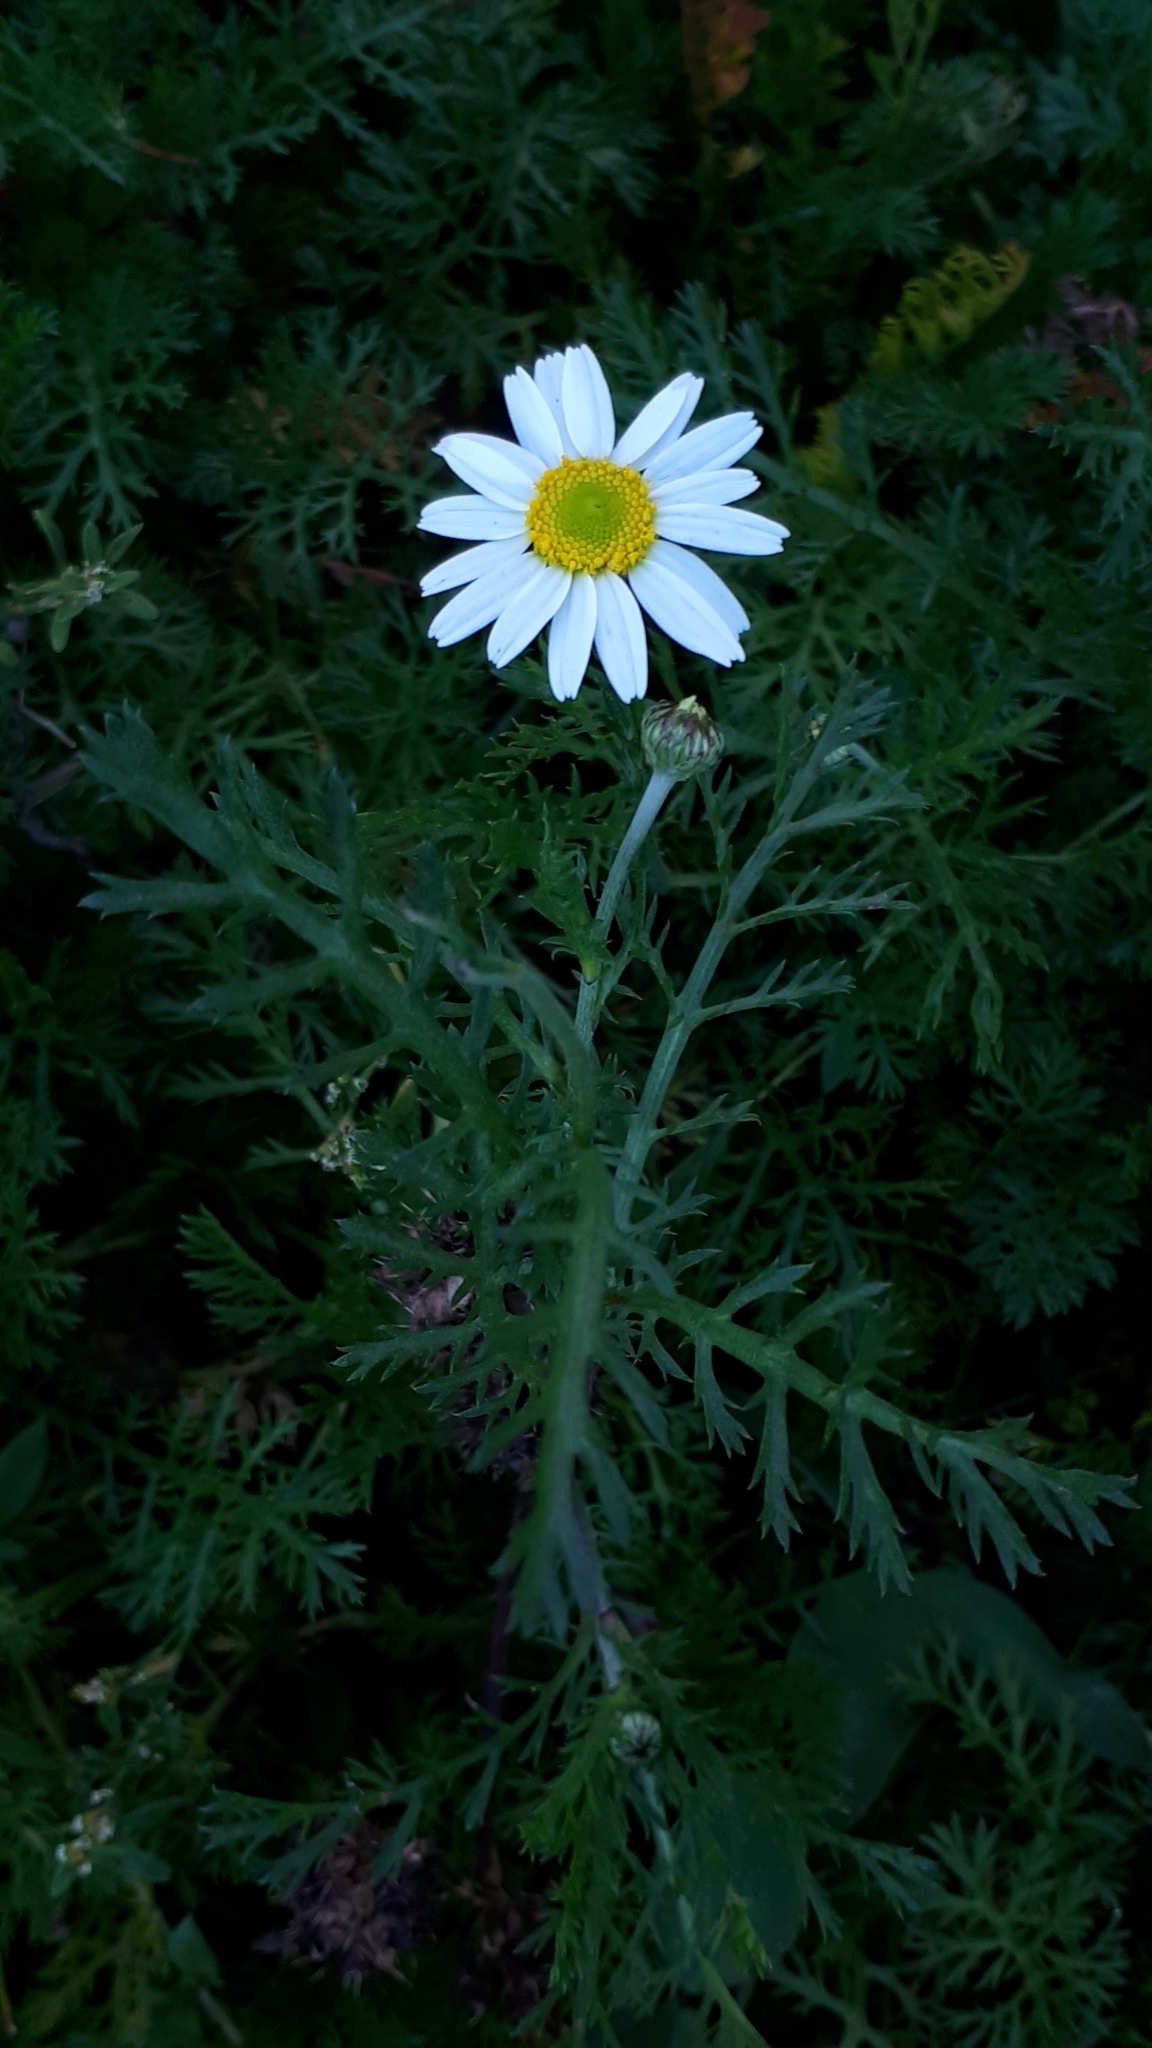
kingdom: Plantae
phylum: Tracheophyta
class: Magnoliopsida
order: Asterales
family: Asteraceae
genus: Anthemis
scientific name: Anthemis arvensis
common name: Corn chamomile
